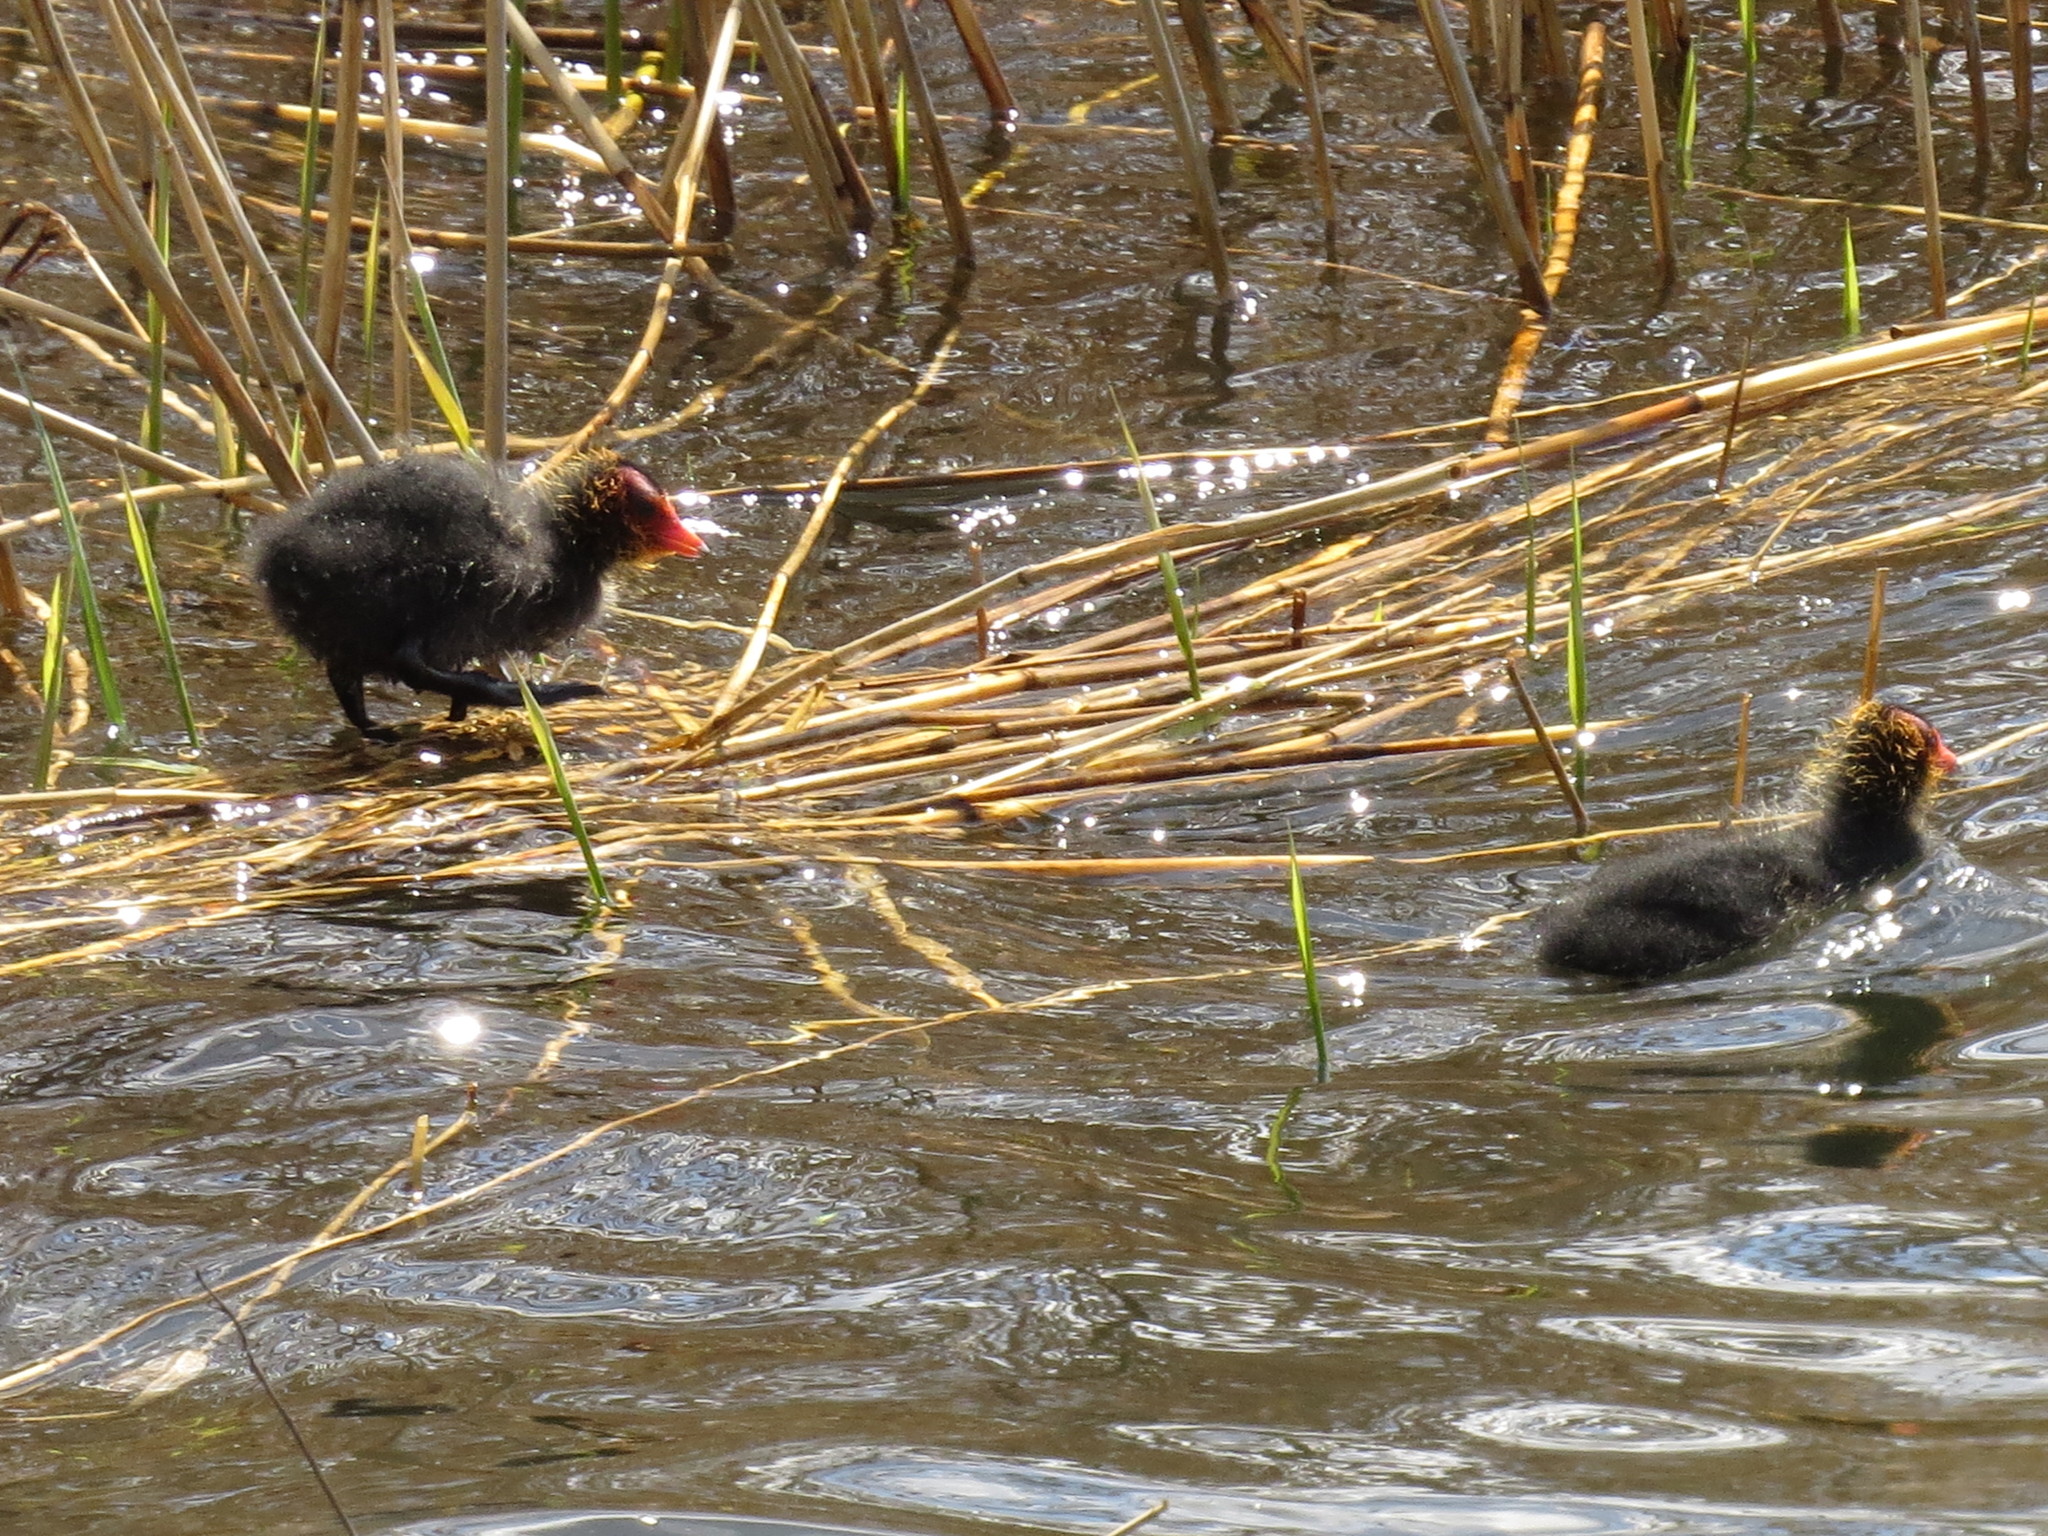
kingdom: Animalia
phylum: Chordata
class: Aves
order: Gruiformes
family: Rallidae
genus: Fulica
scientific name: Fulica atra
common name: Eurasian coot
